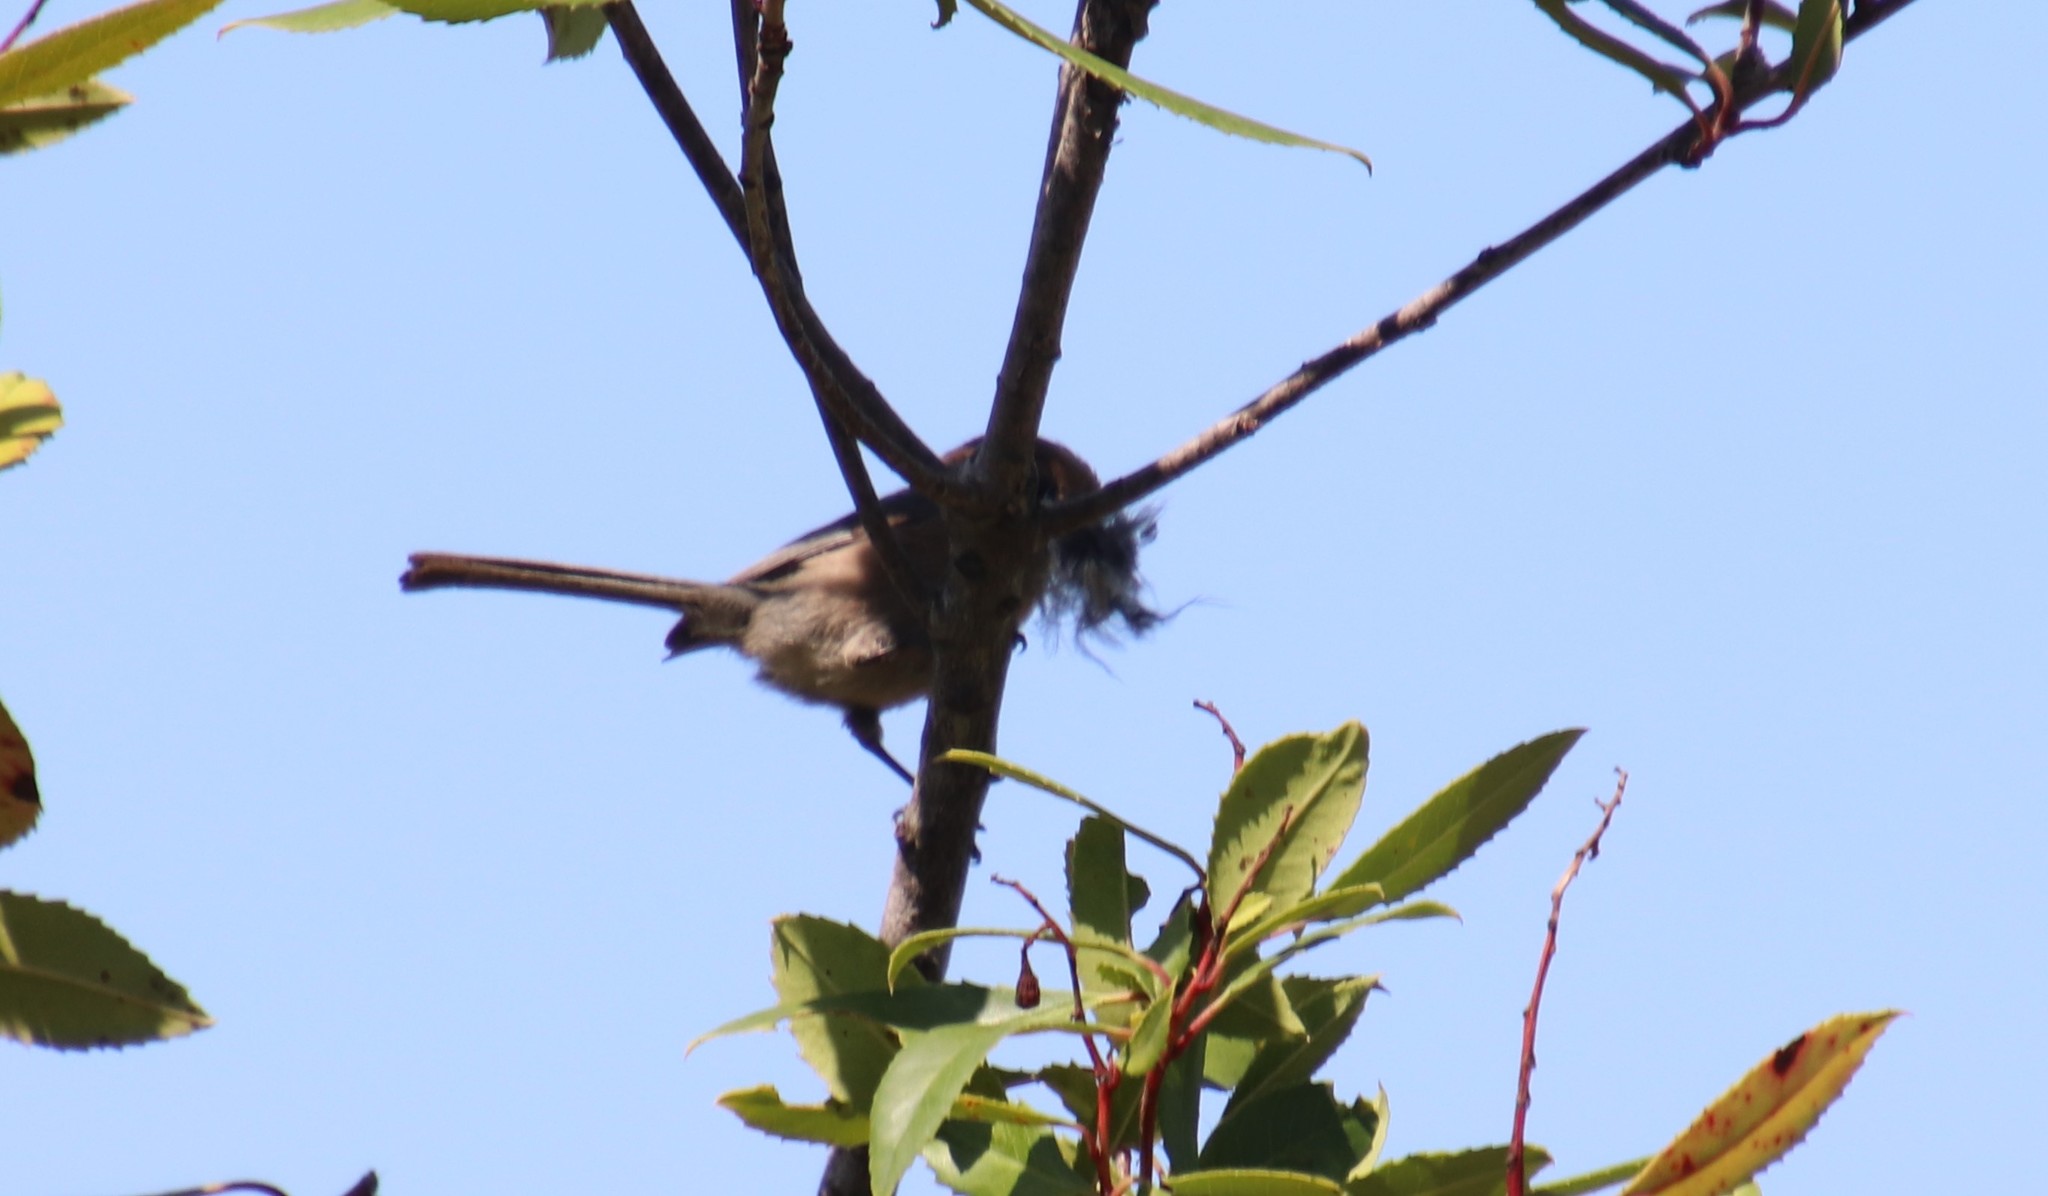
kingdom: Animalia
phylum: Chordata
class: Aves
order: Passeriformes
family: Aegithalidae
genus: Psaltriparus
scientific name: Psaltriparus minimus
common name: American bushtit
